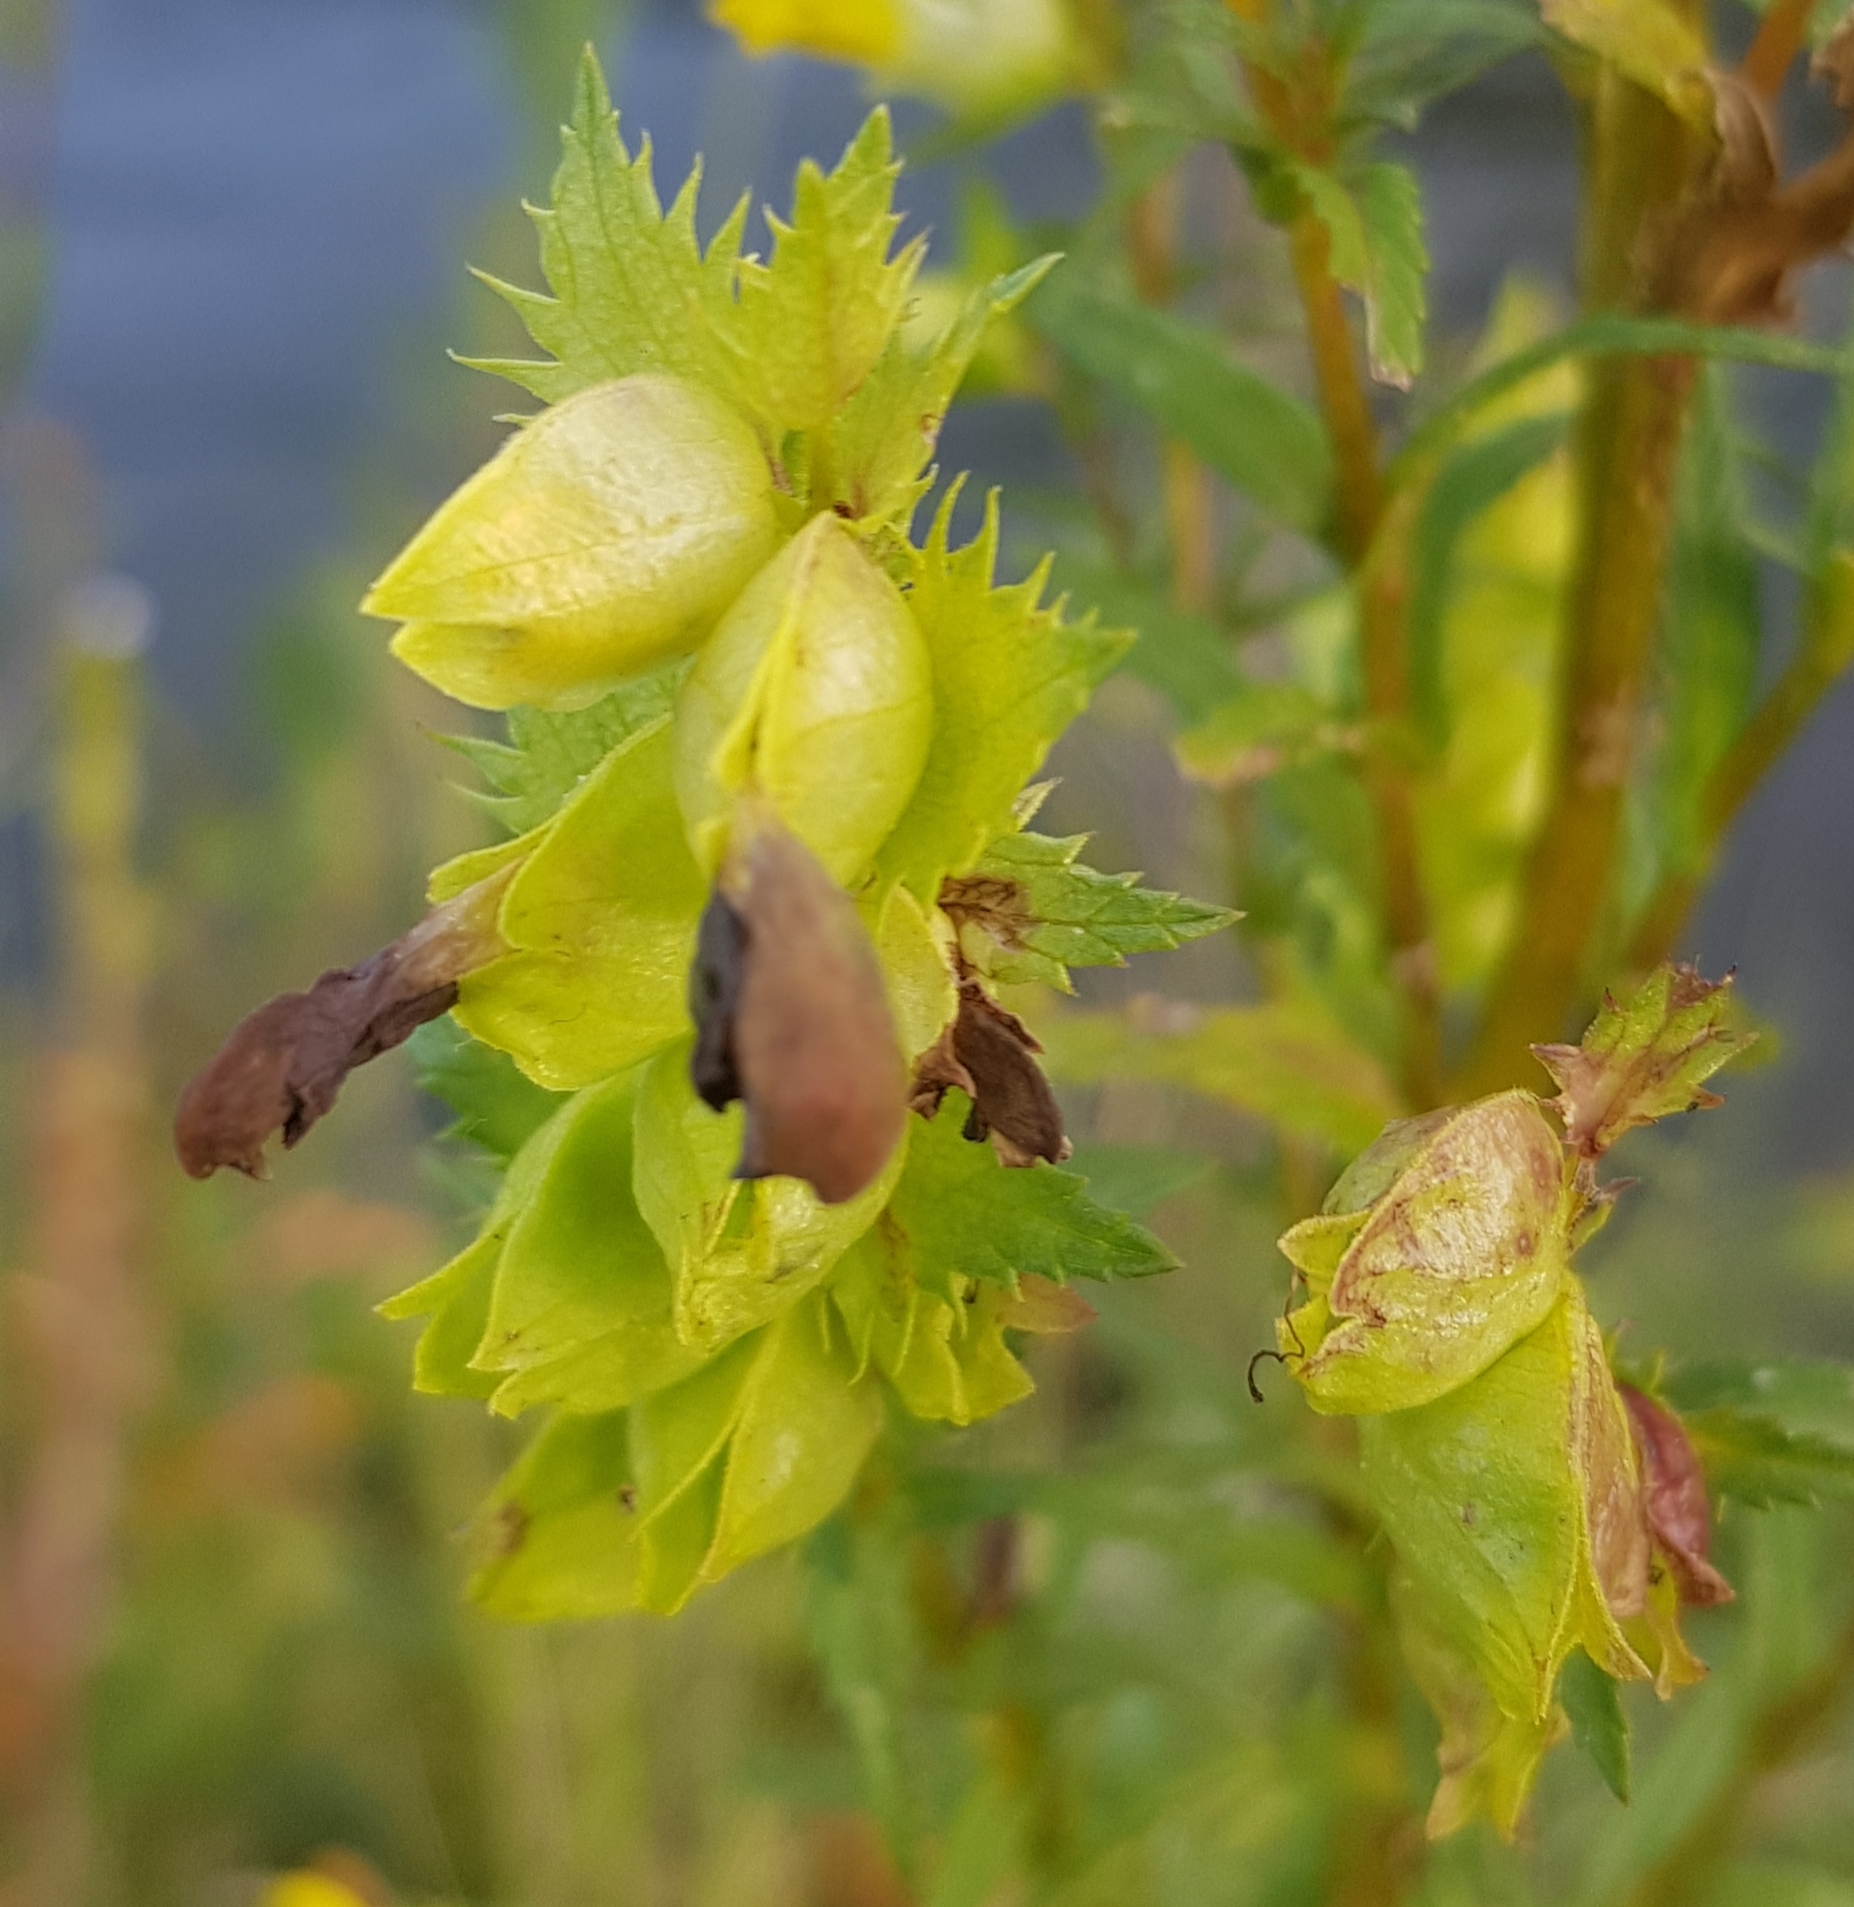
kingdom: Plantae
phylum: Tracheophyta
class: Magnoliopsida
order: Lamiales
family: Orobanchaceae
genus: Rhinanthus
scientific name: Rhinanthus serotinus
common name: Late-flowering yellow rattle
